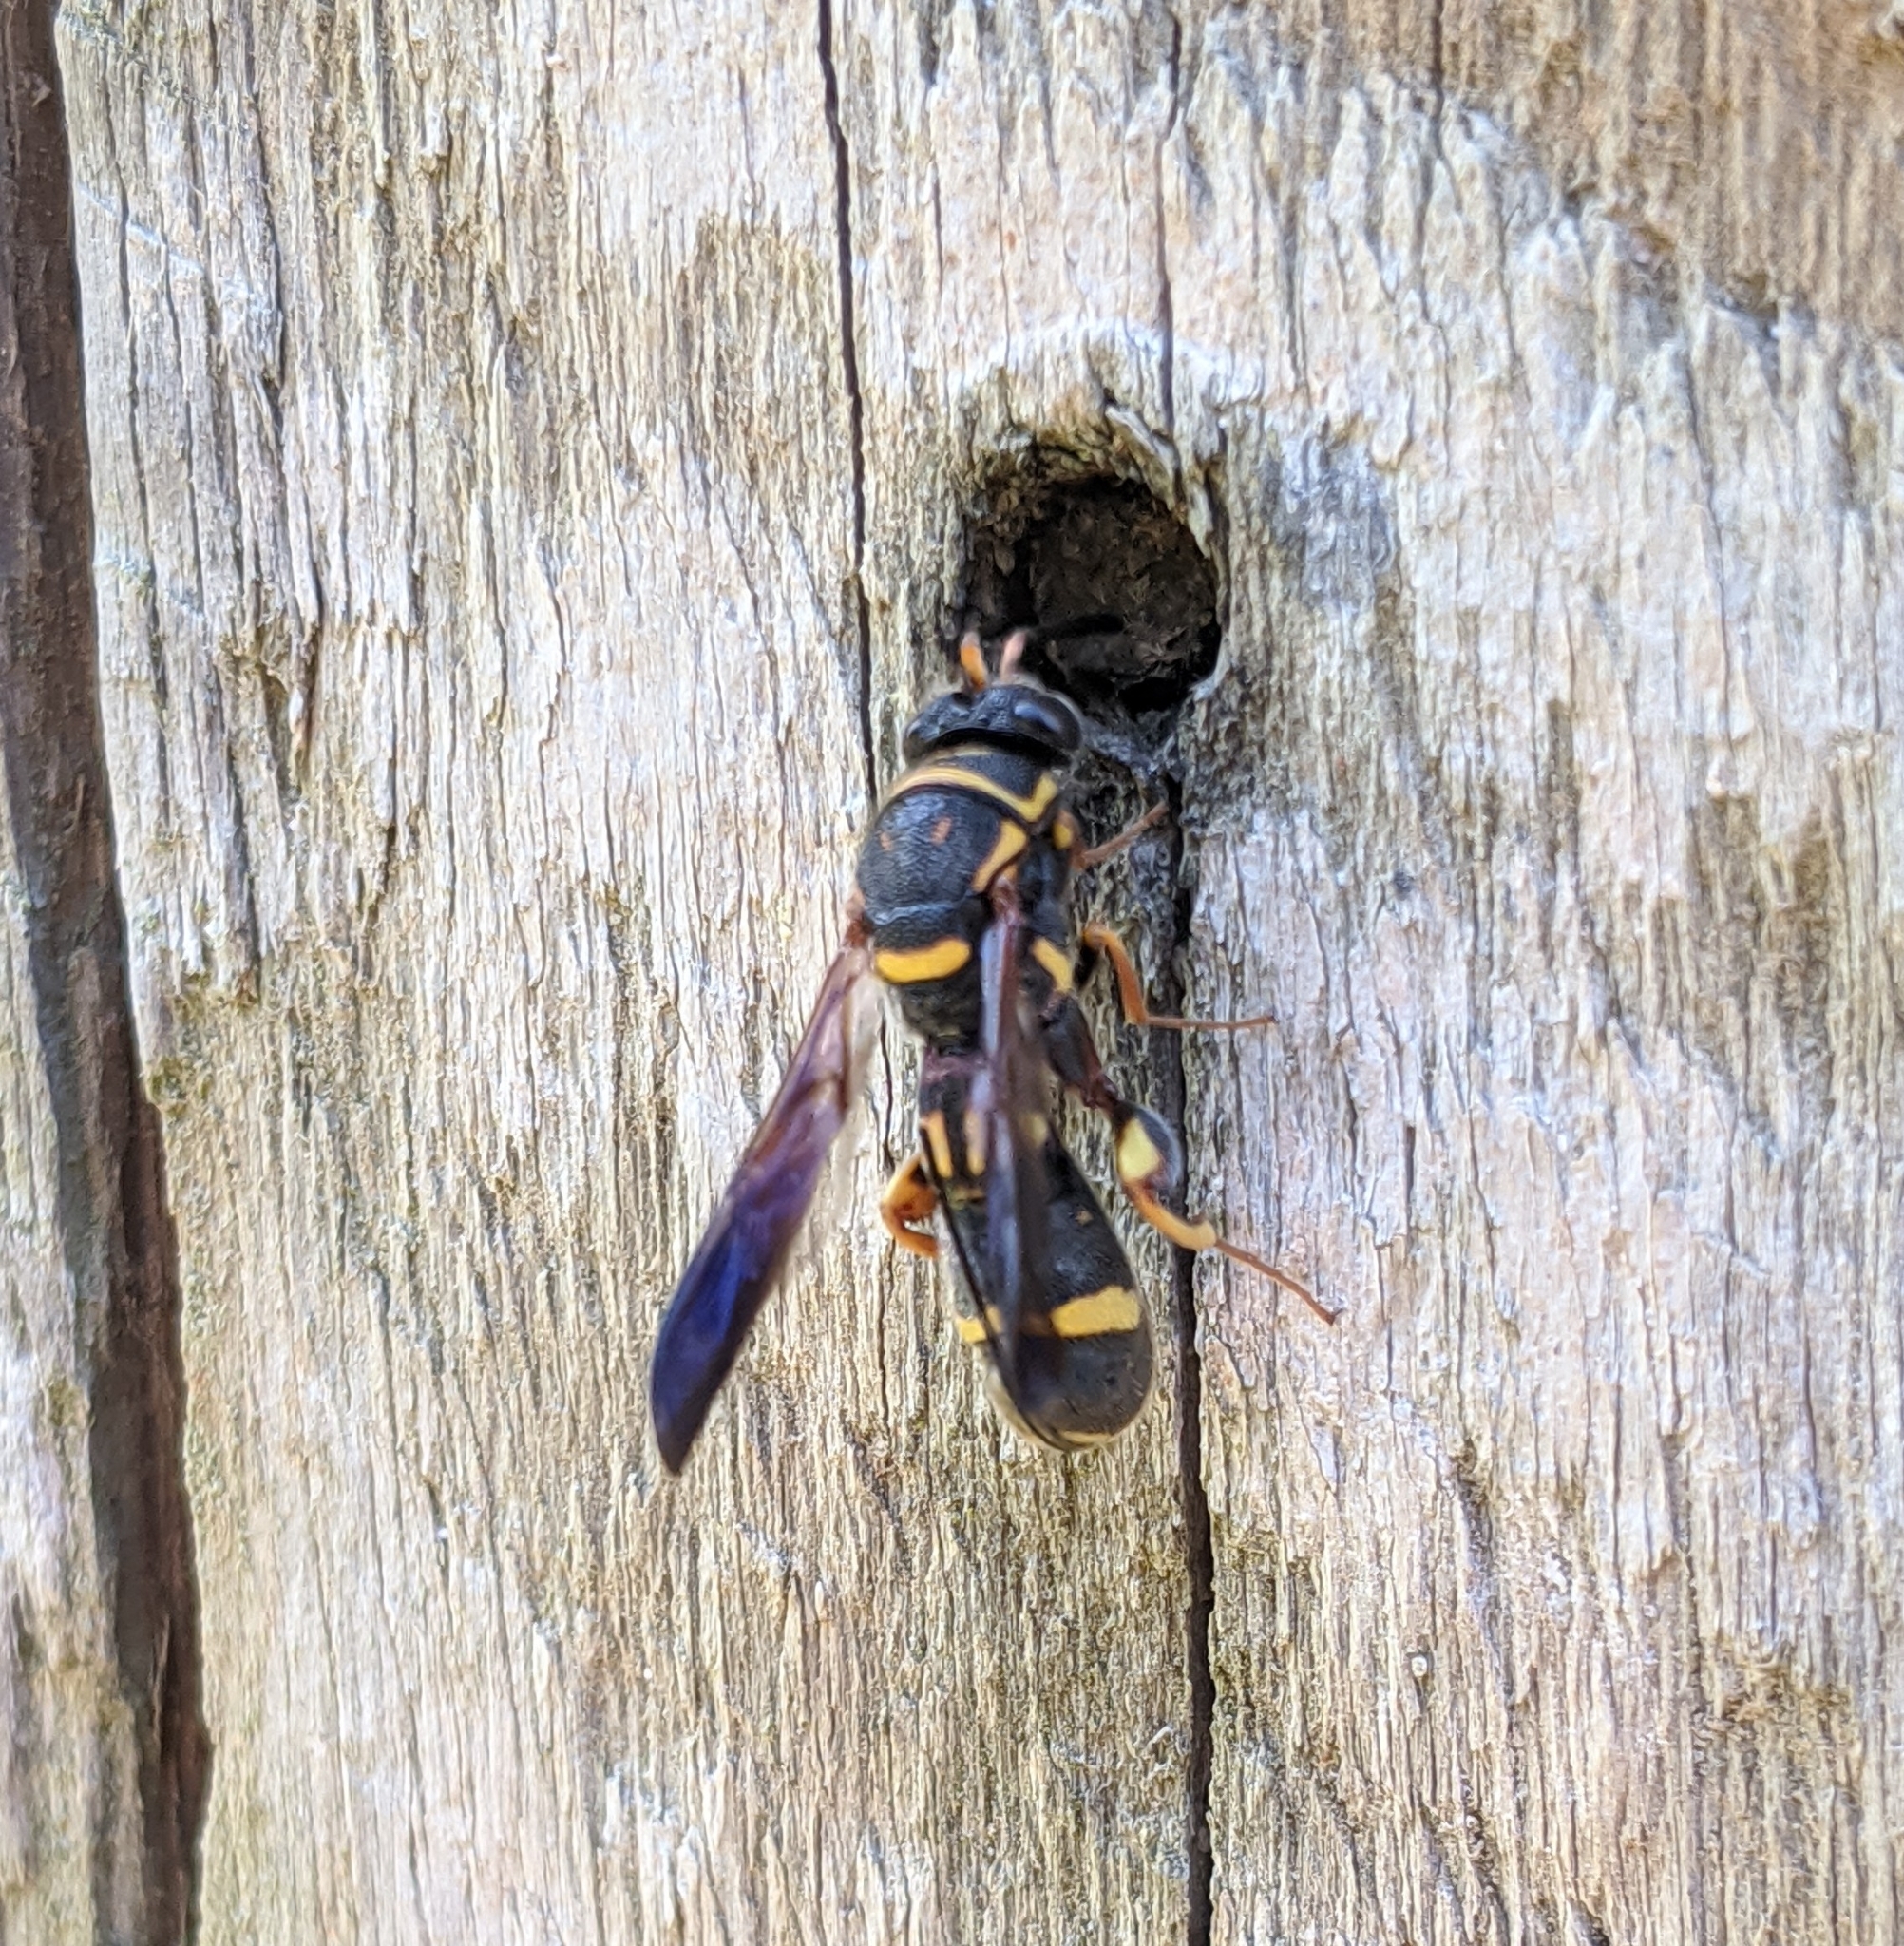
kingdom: Animalia
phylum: Arthropoda
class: Insecta
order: Hymenoptera
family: Leucospidae
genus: Leucospis
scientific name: Leucospis affinis
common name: Wasp
